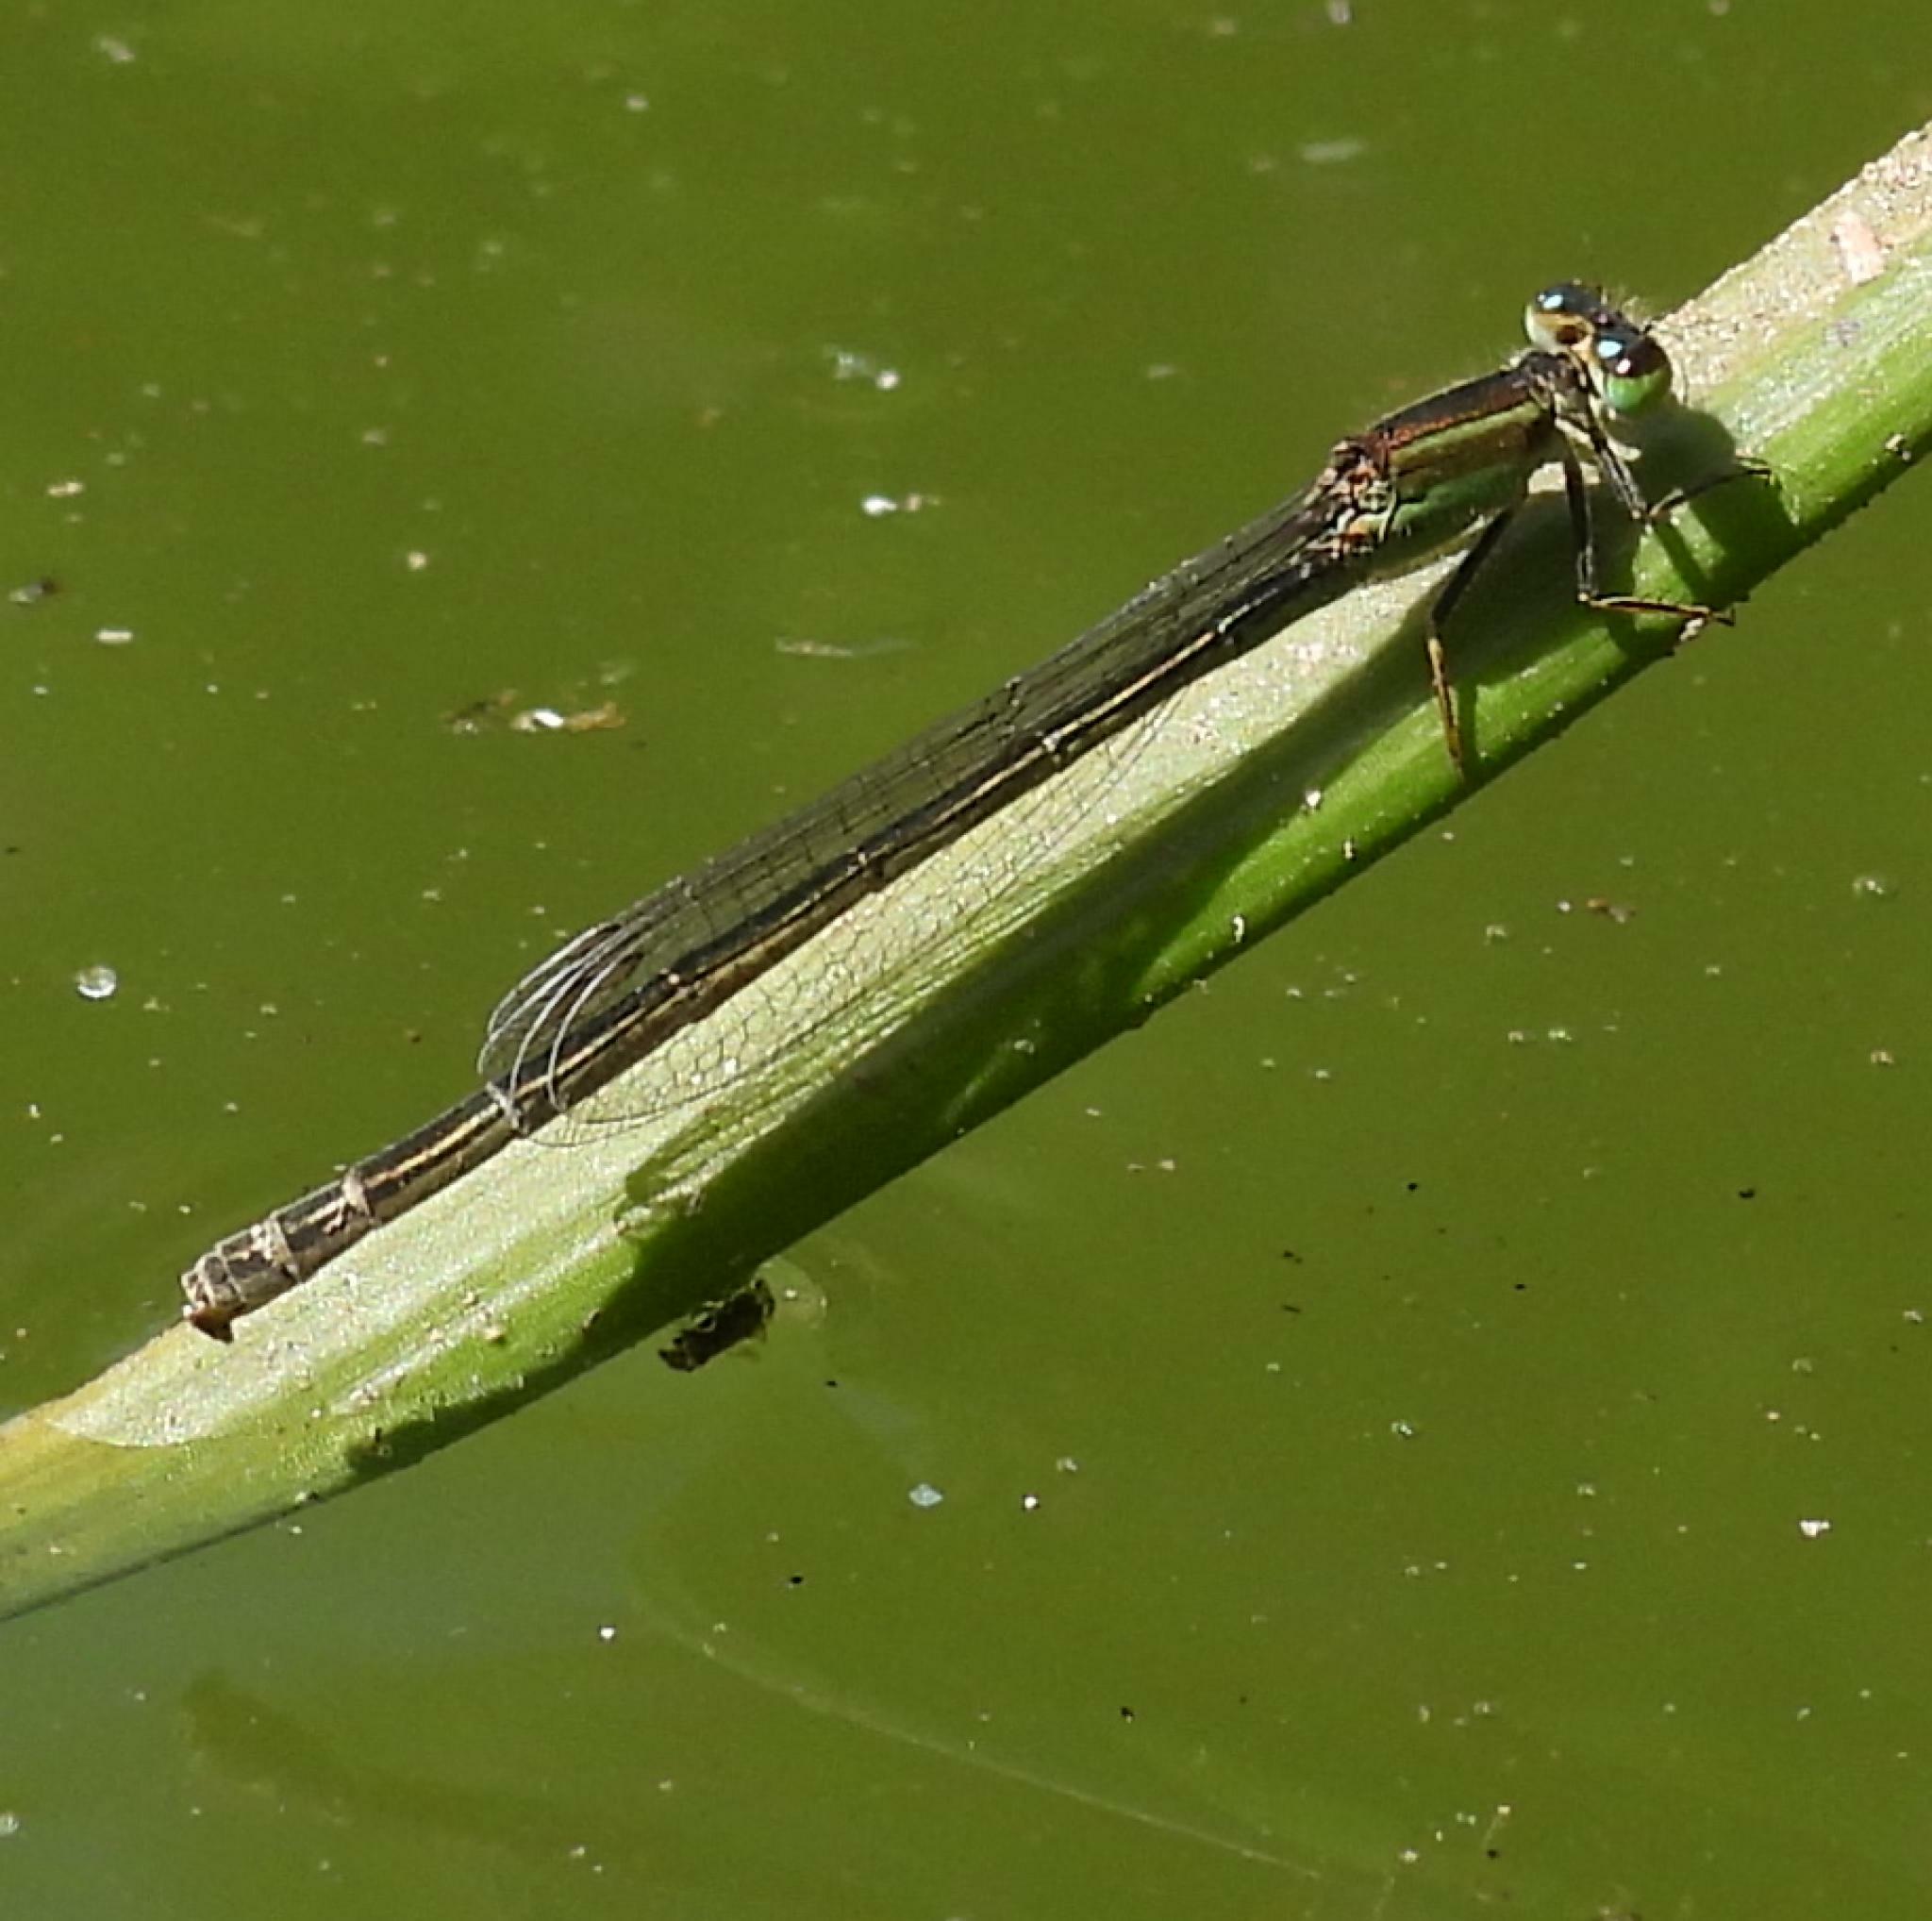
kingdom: Animalia
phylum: Arthropoda
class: Insecta
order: Odonata
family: Coenagrionidae
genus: Ischnura
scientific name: Ischnura senegalensis
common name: Tropical bluetail
